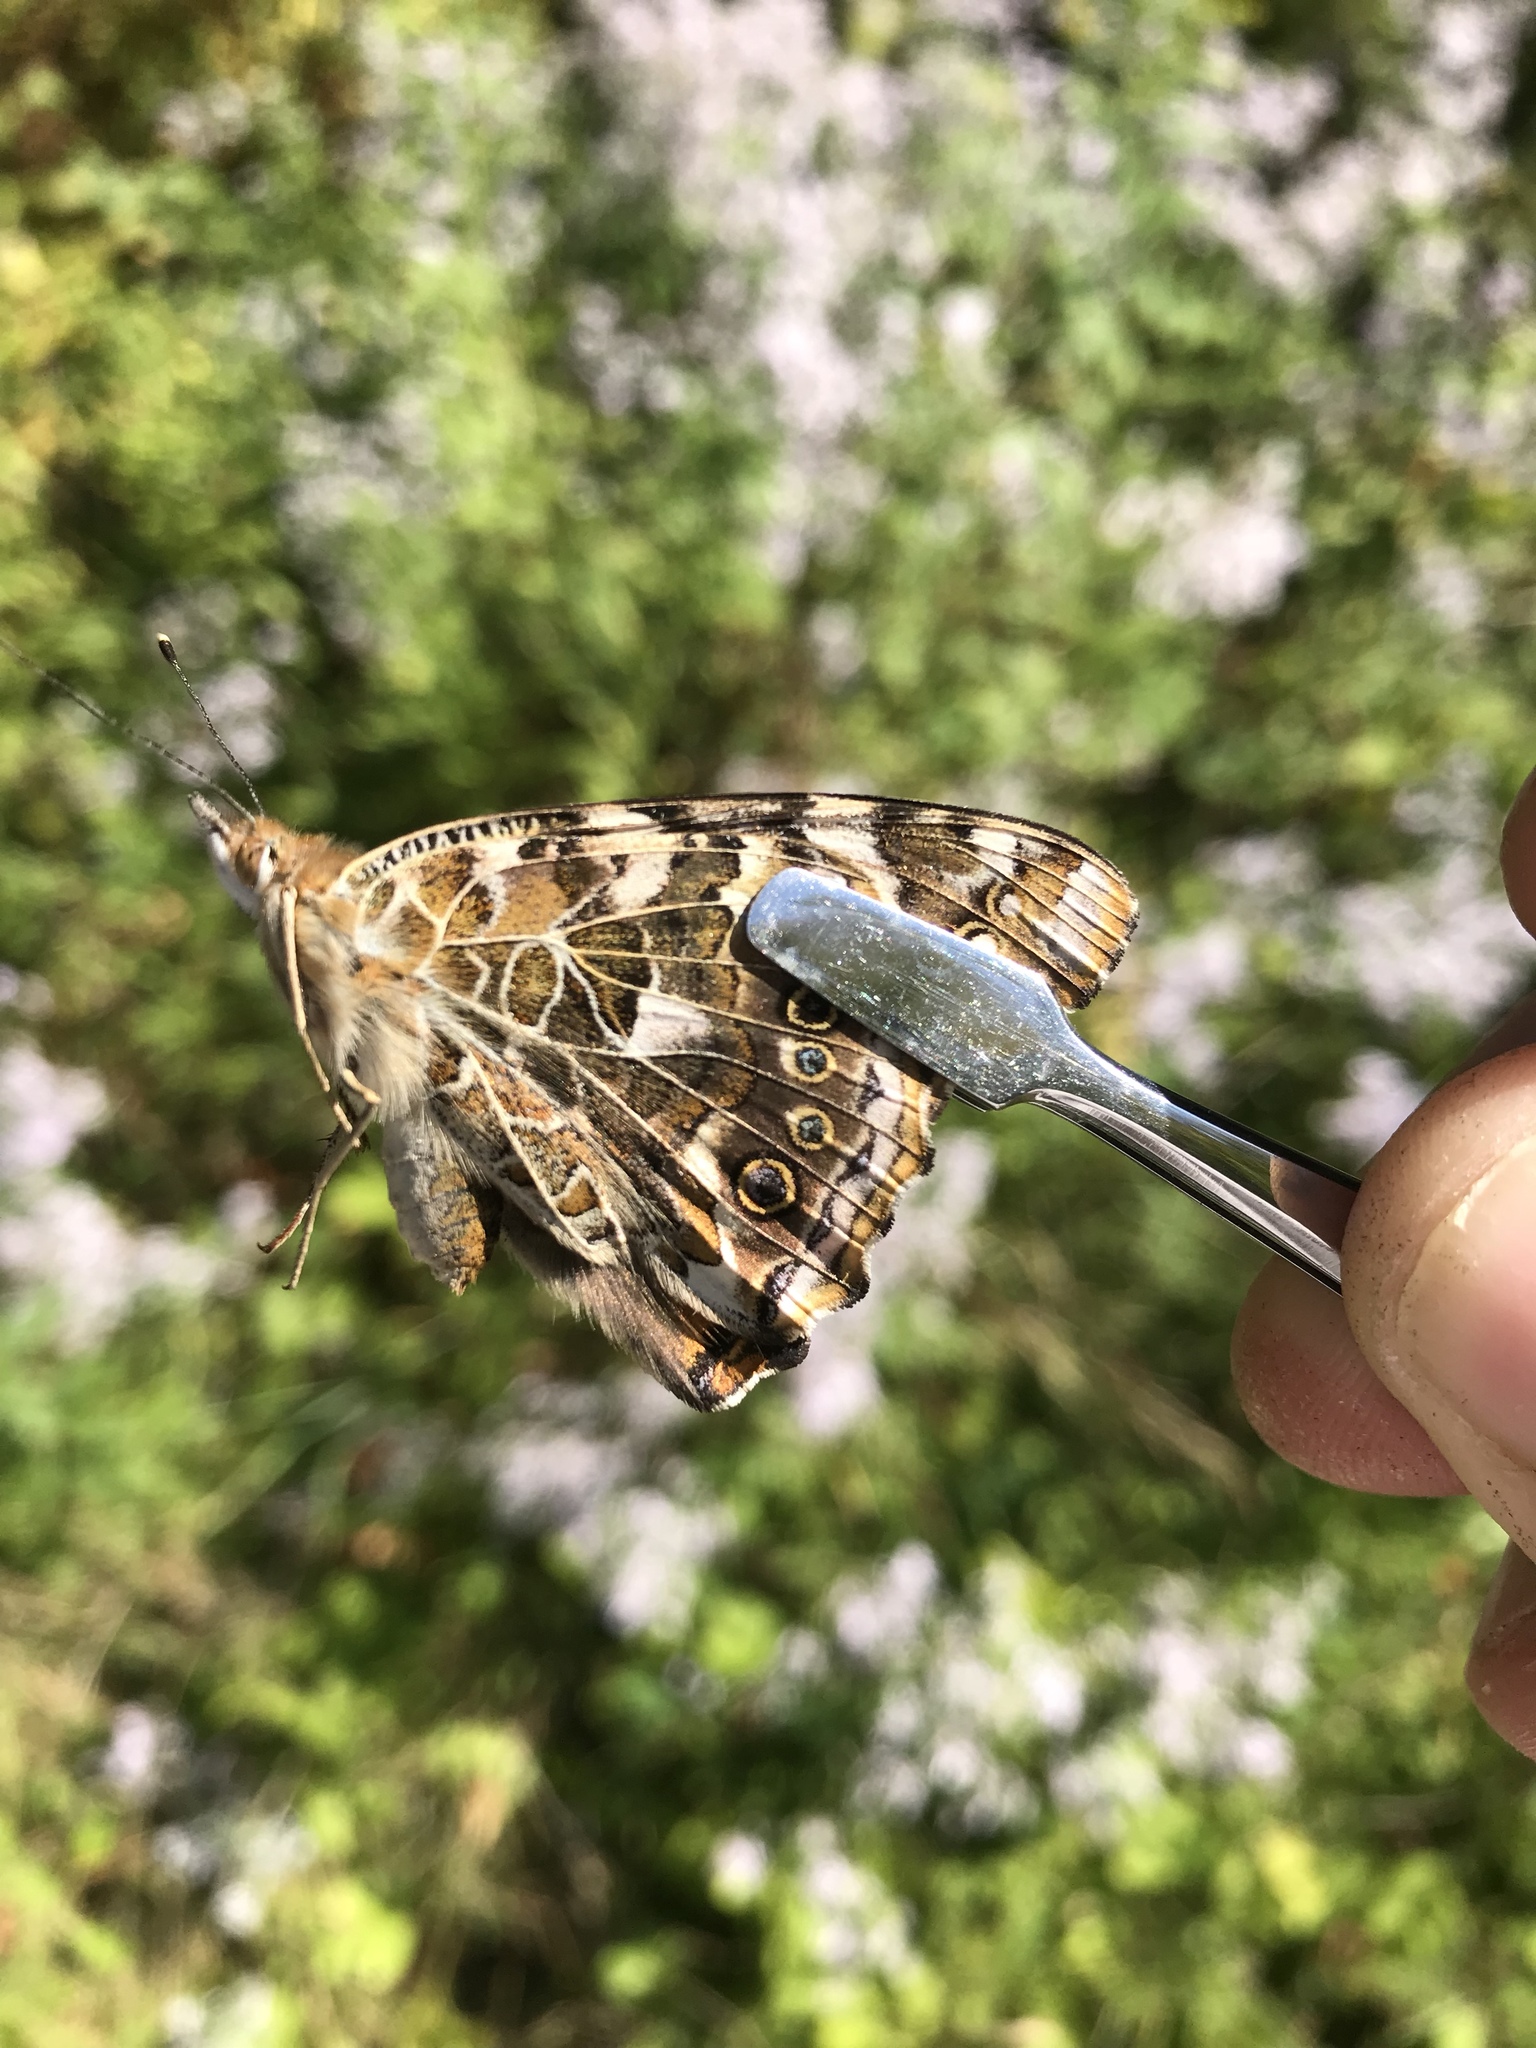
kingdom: Animalia
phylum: Arthropoda
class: Insecta
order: Lepidoptera
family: Nymphalidae
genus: Vanessa
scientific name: Vanessa cardui
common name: Painted lady
